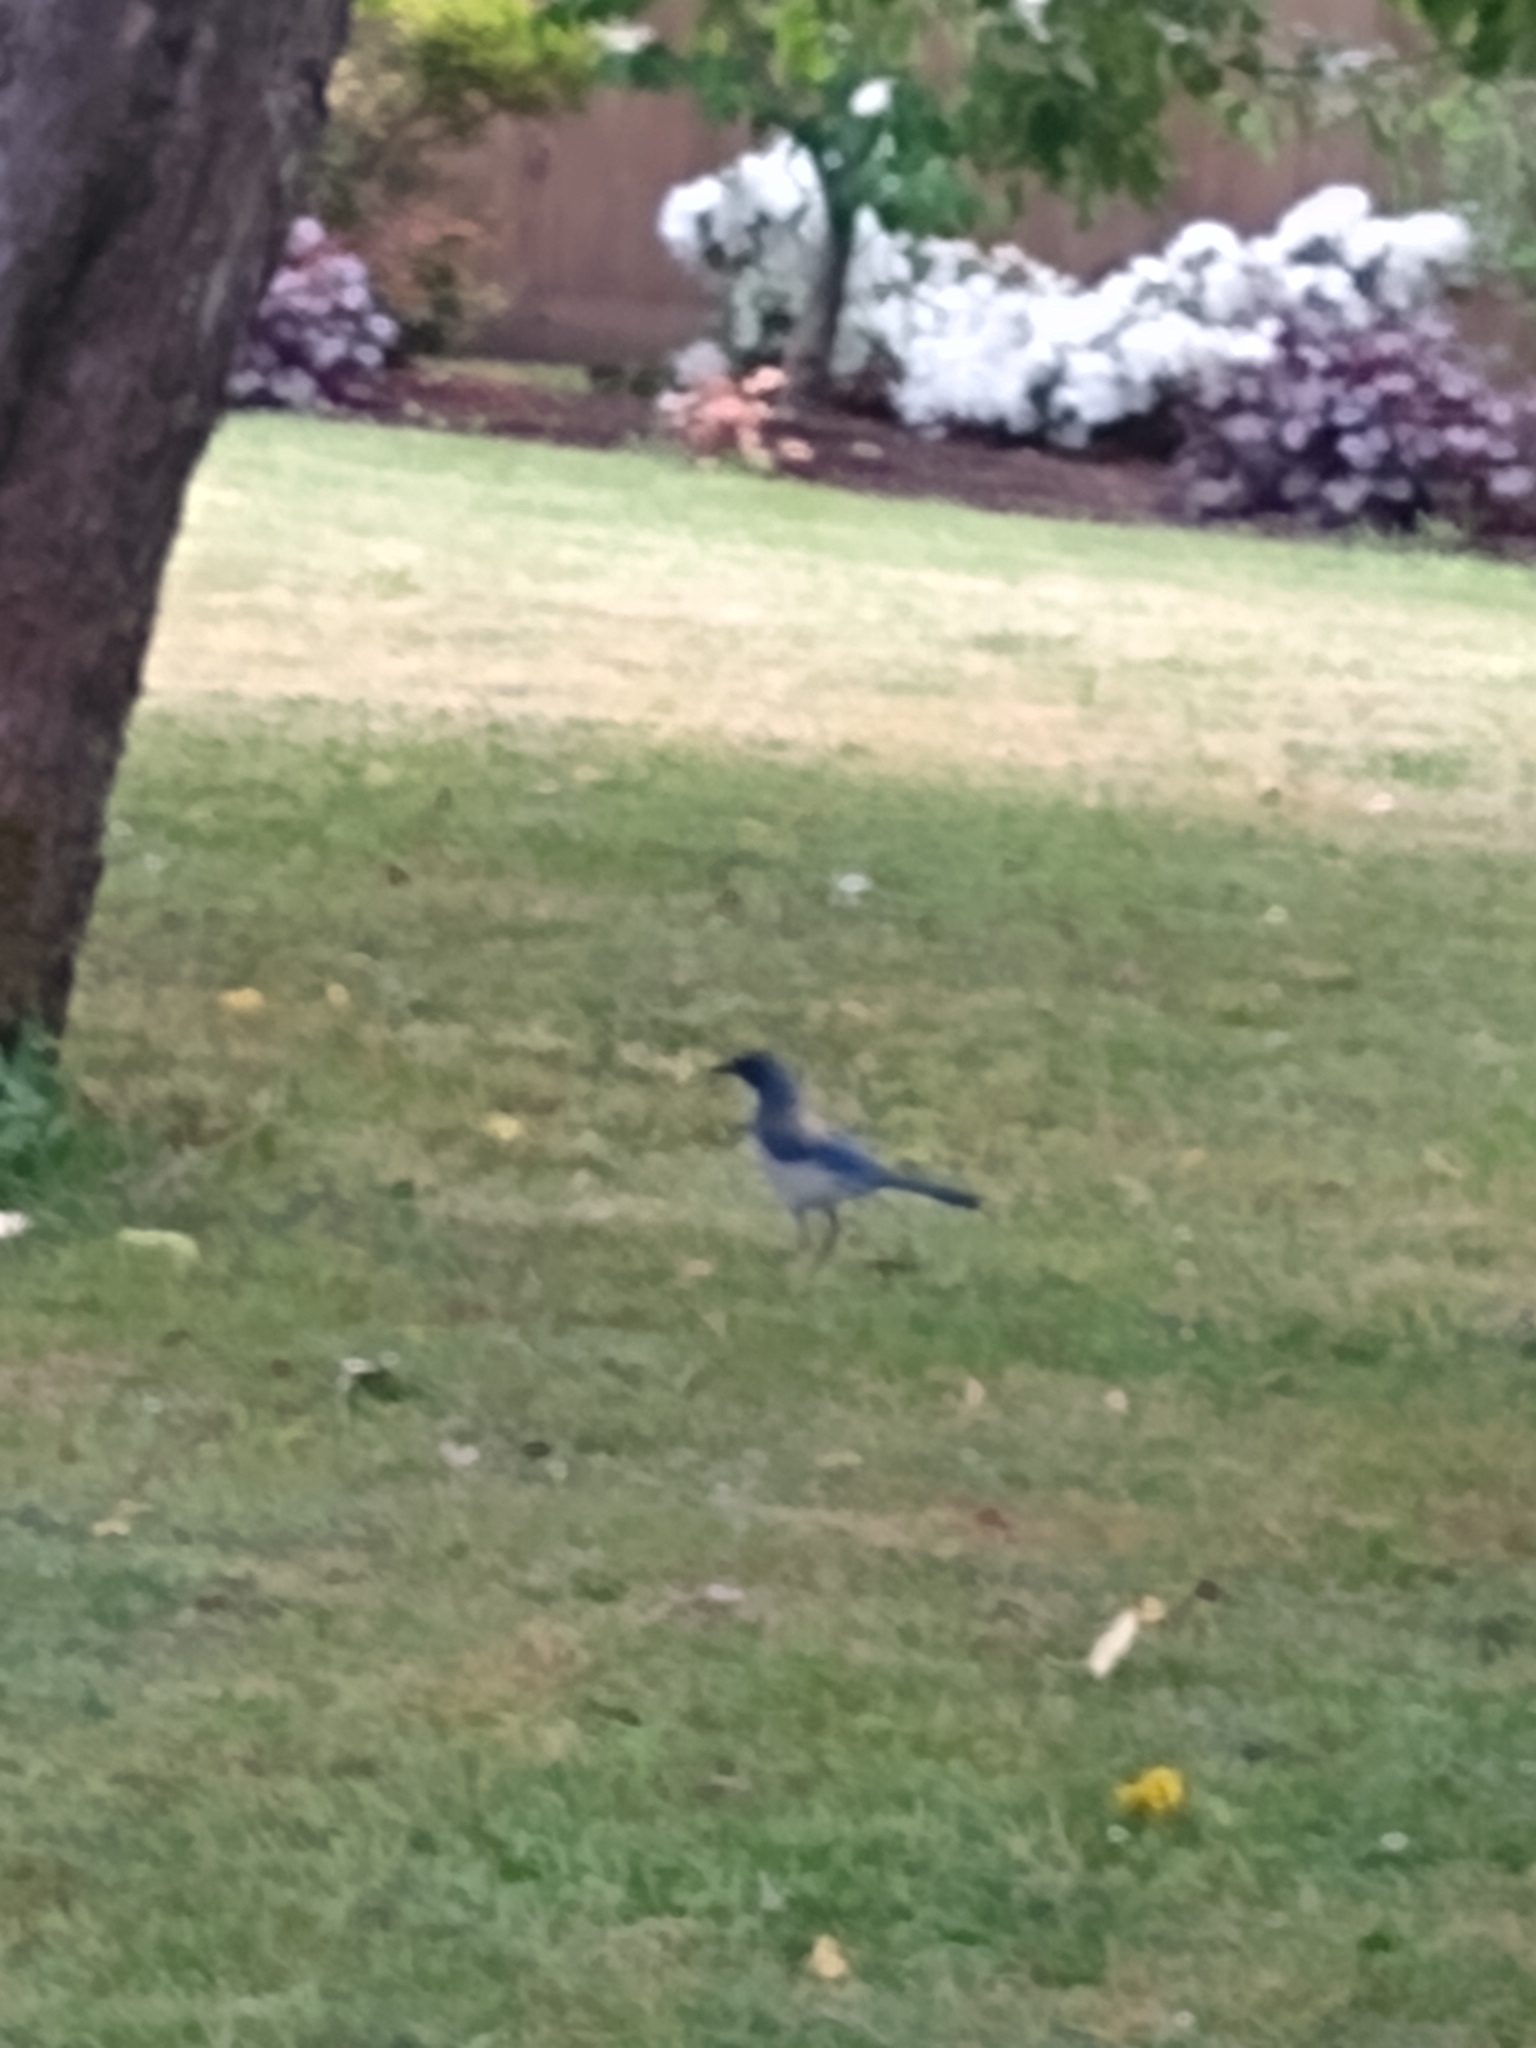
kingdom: Animalia
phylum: Chordata
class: Aves
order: Passeriformes
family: Corvidae
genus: Aphelocoma
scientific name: Aphelocoma californica
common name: California scrub-jay
